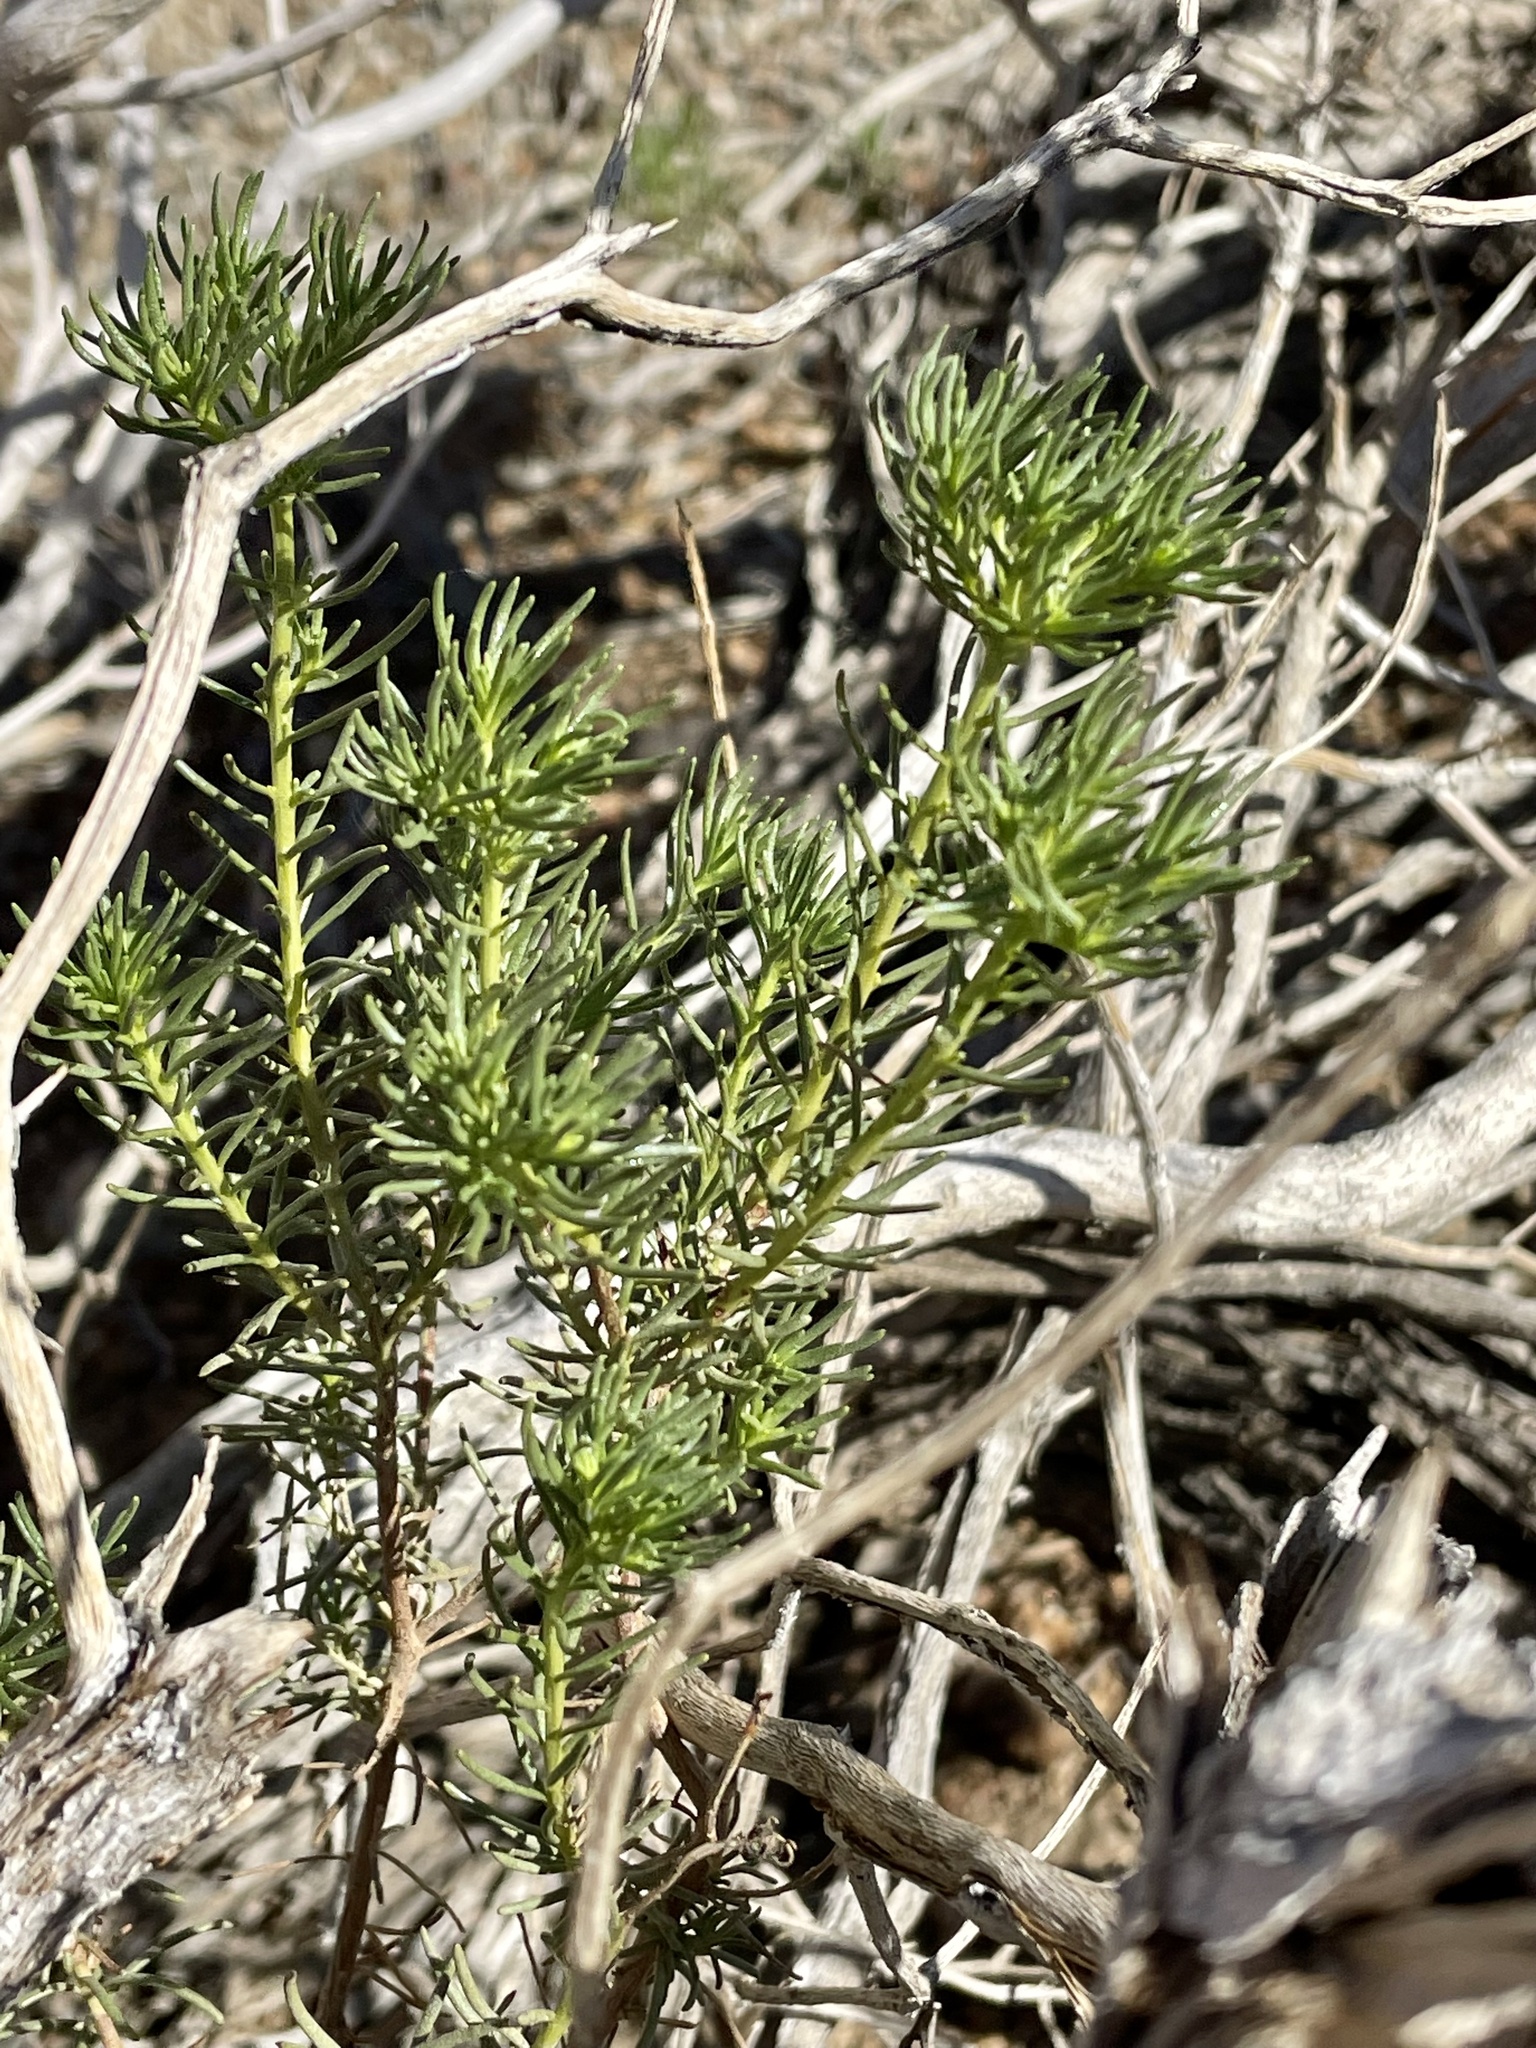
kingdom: Plantae
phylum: Tracheophyta
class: Magnoliopsida
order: Asterales
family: Asteraceae
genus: Peucephyllum
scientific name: Peucephyllum schottii
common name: Pygmy-cedar
